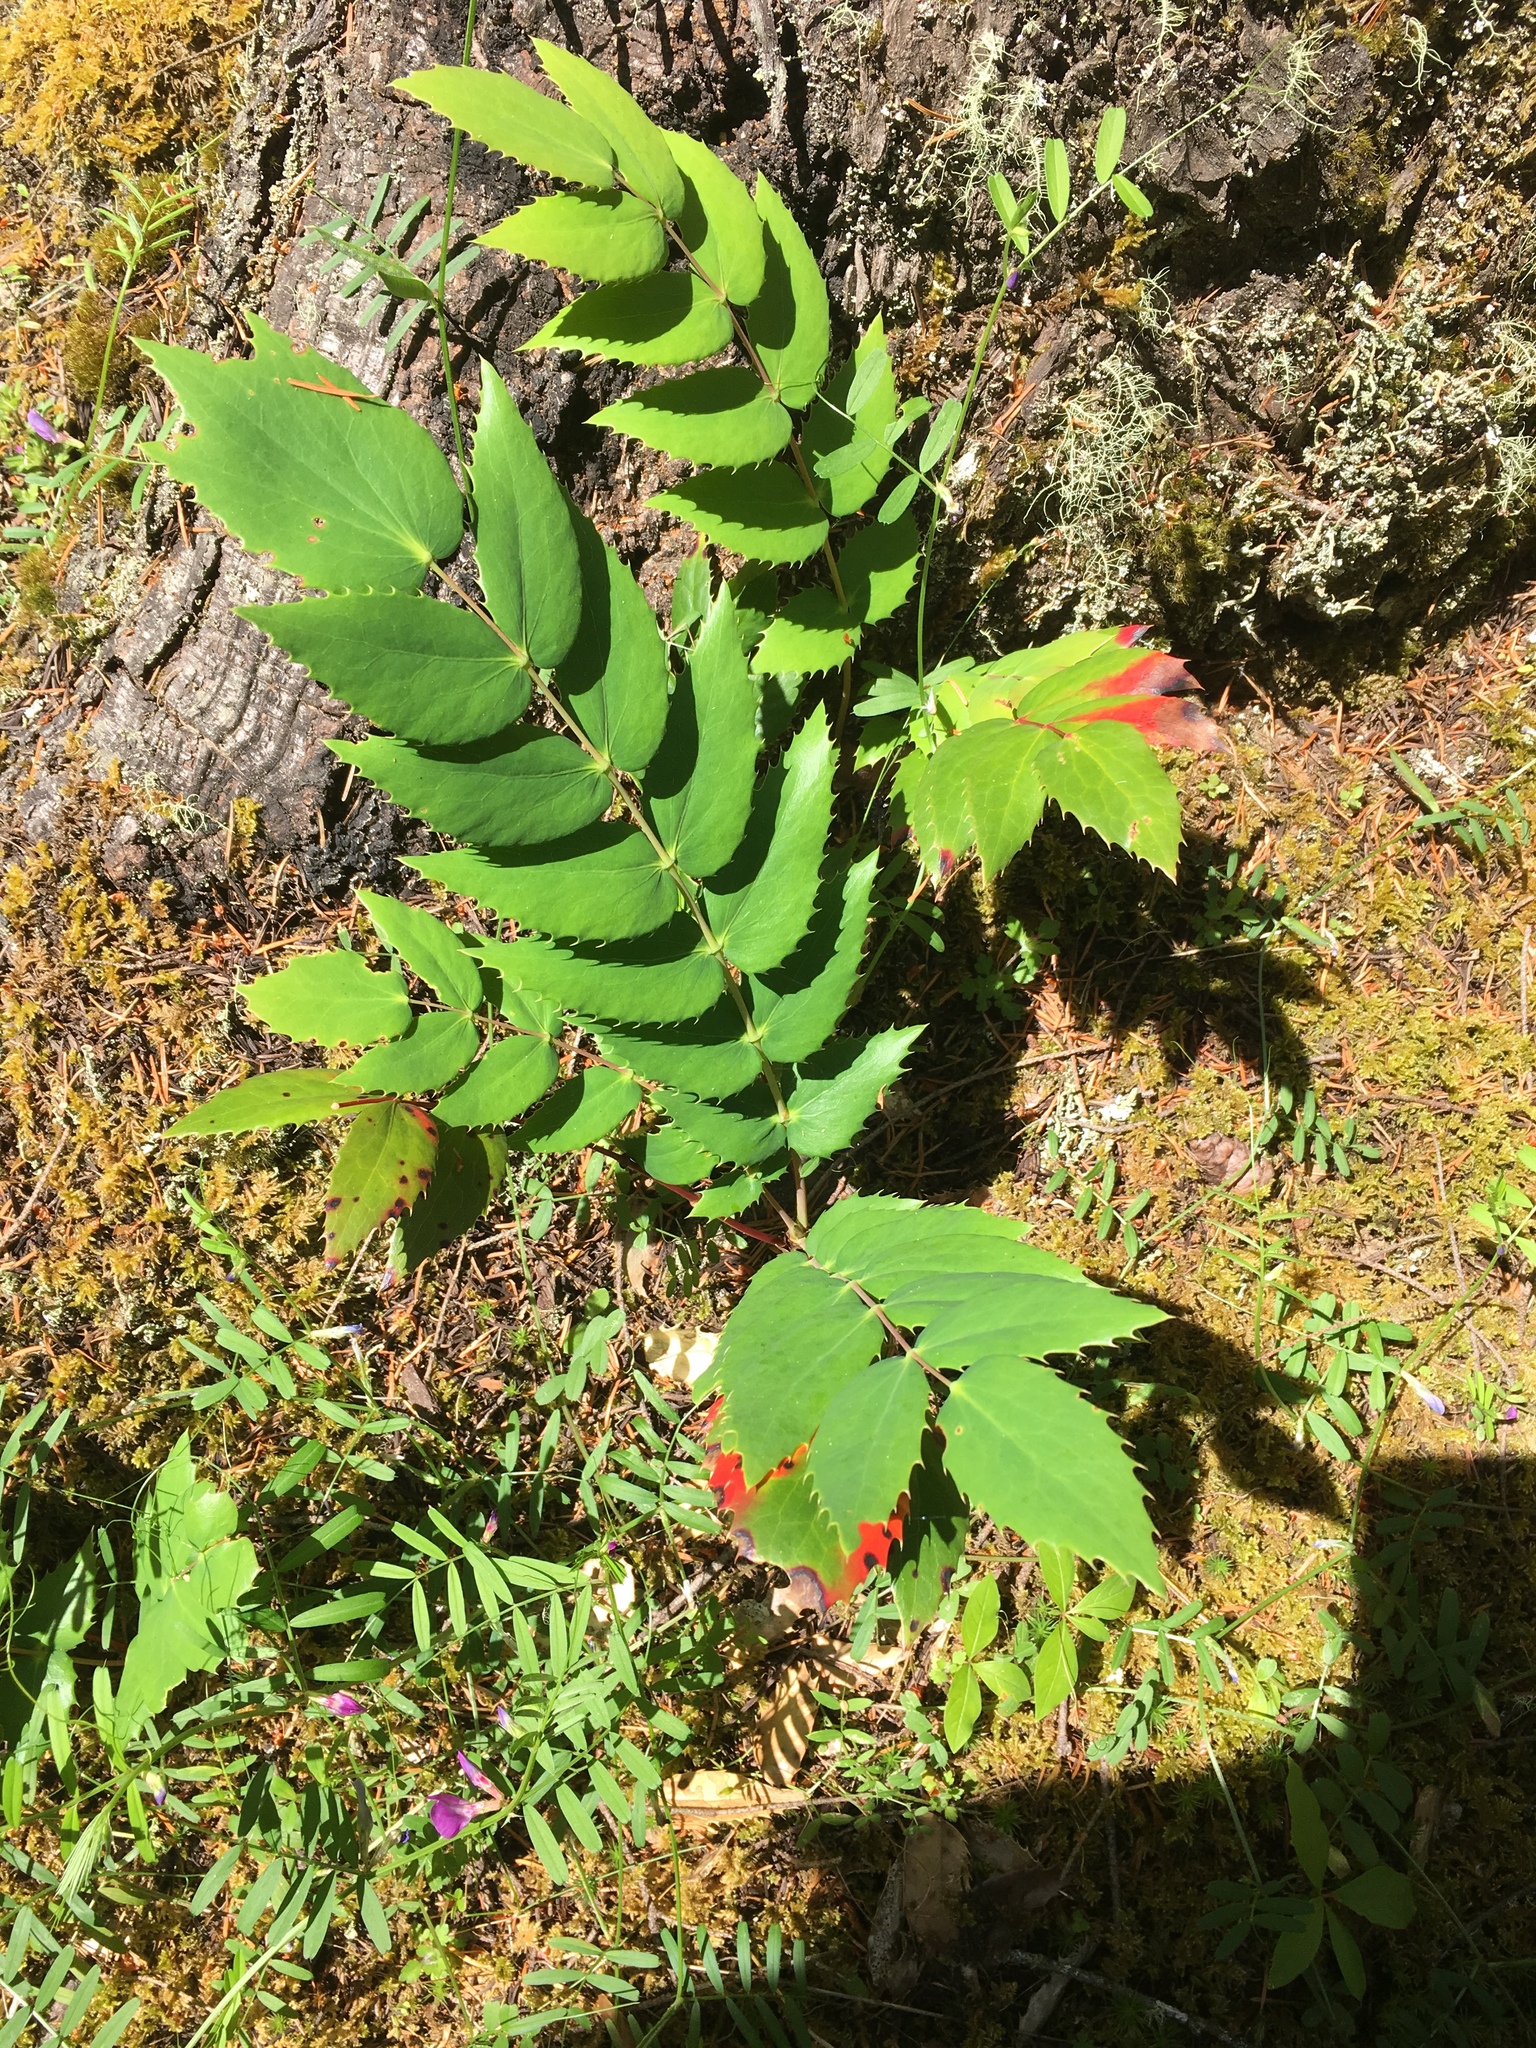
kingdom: Plantae
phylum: Tracheophyta
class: Magnoliopsida
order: Ranunculales
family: Berberidaceae
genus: Mahonia
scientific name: Mahonia nervosa
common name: Cascade oregon-grape
